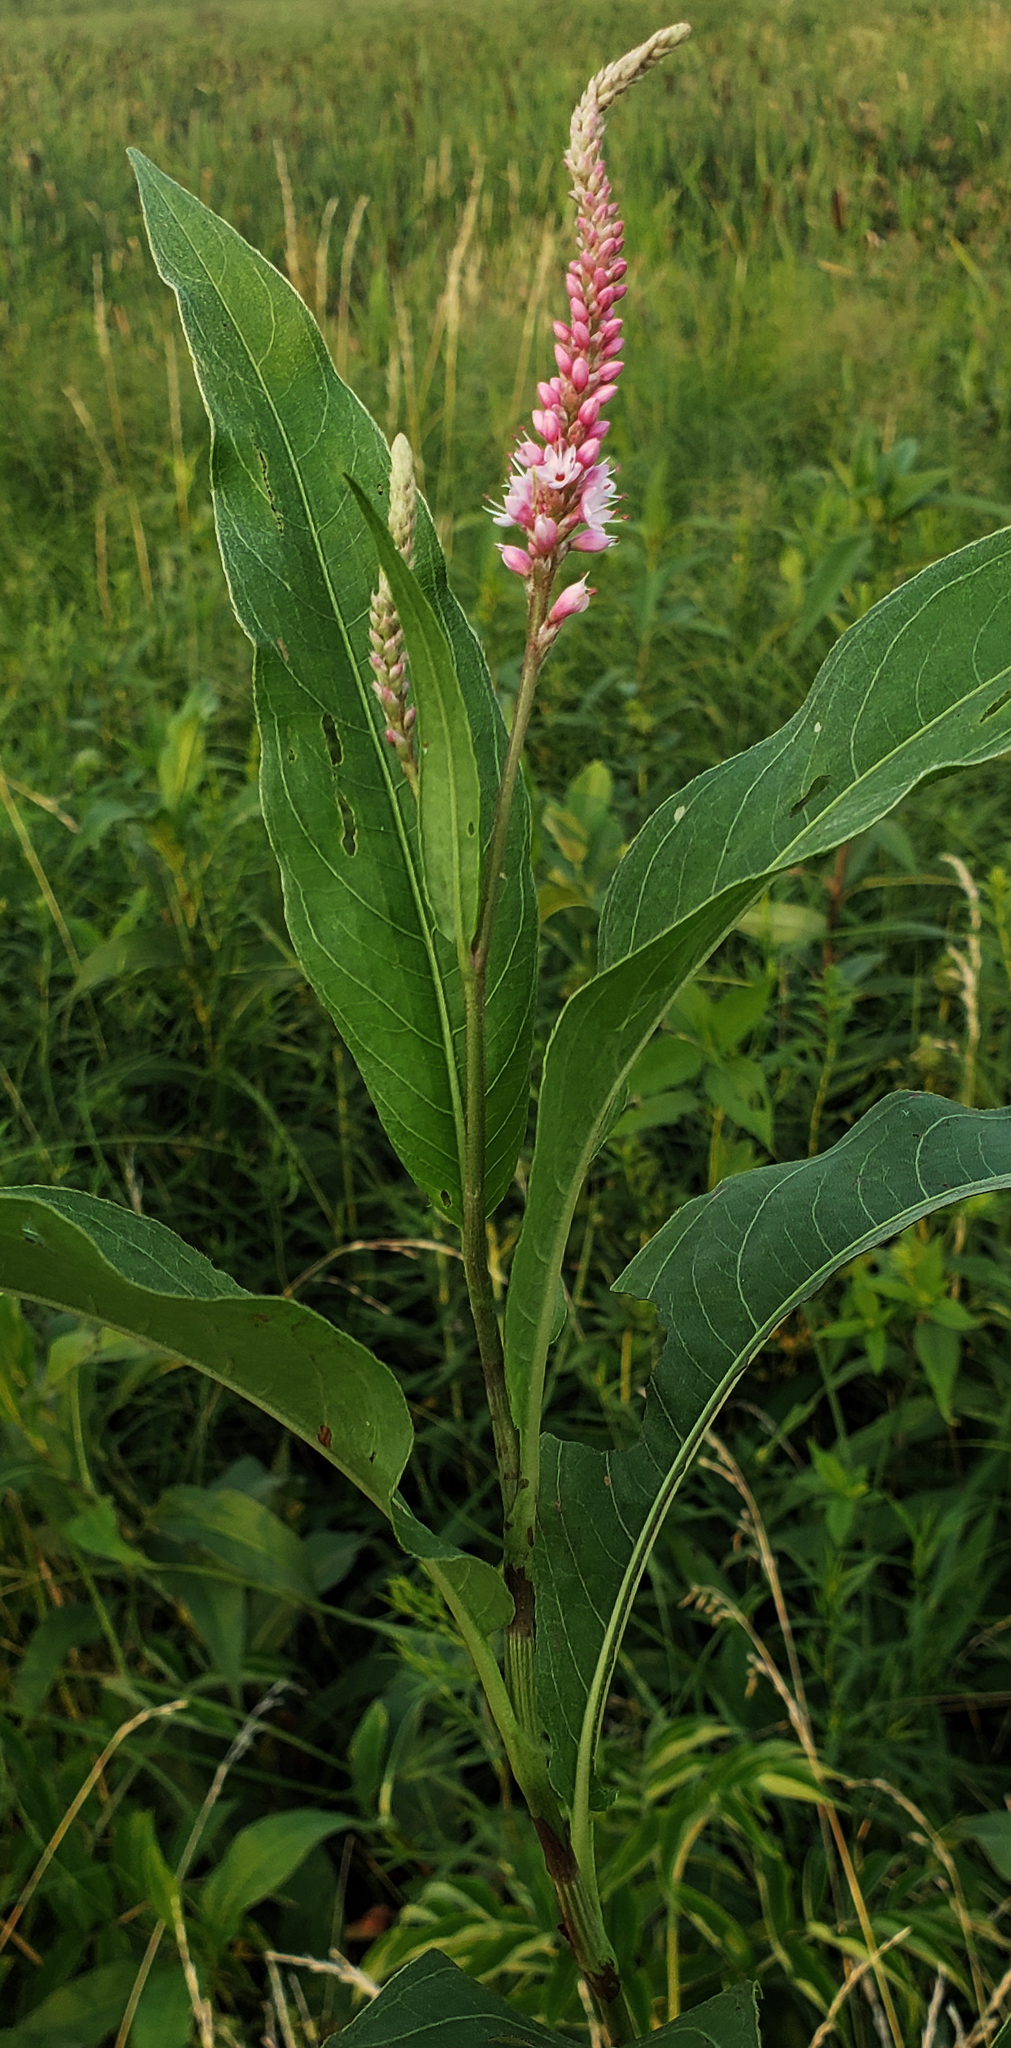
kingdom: Plantae
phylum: Tracheophyta
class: Magnoliopsida
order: Caryophyllales
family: Polygonaceae
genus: Persicaria
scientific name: Persicaria amphibia
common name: Amphibious bistort
